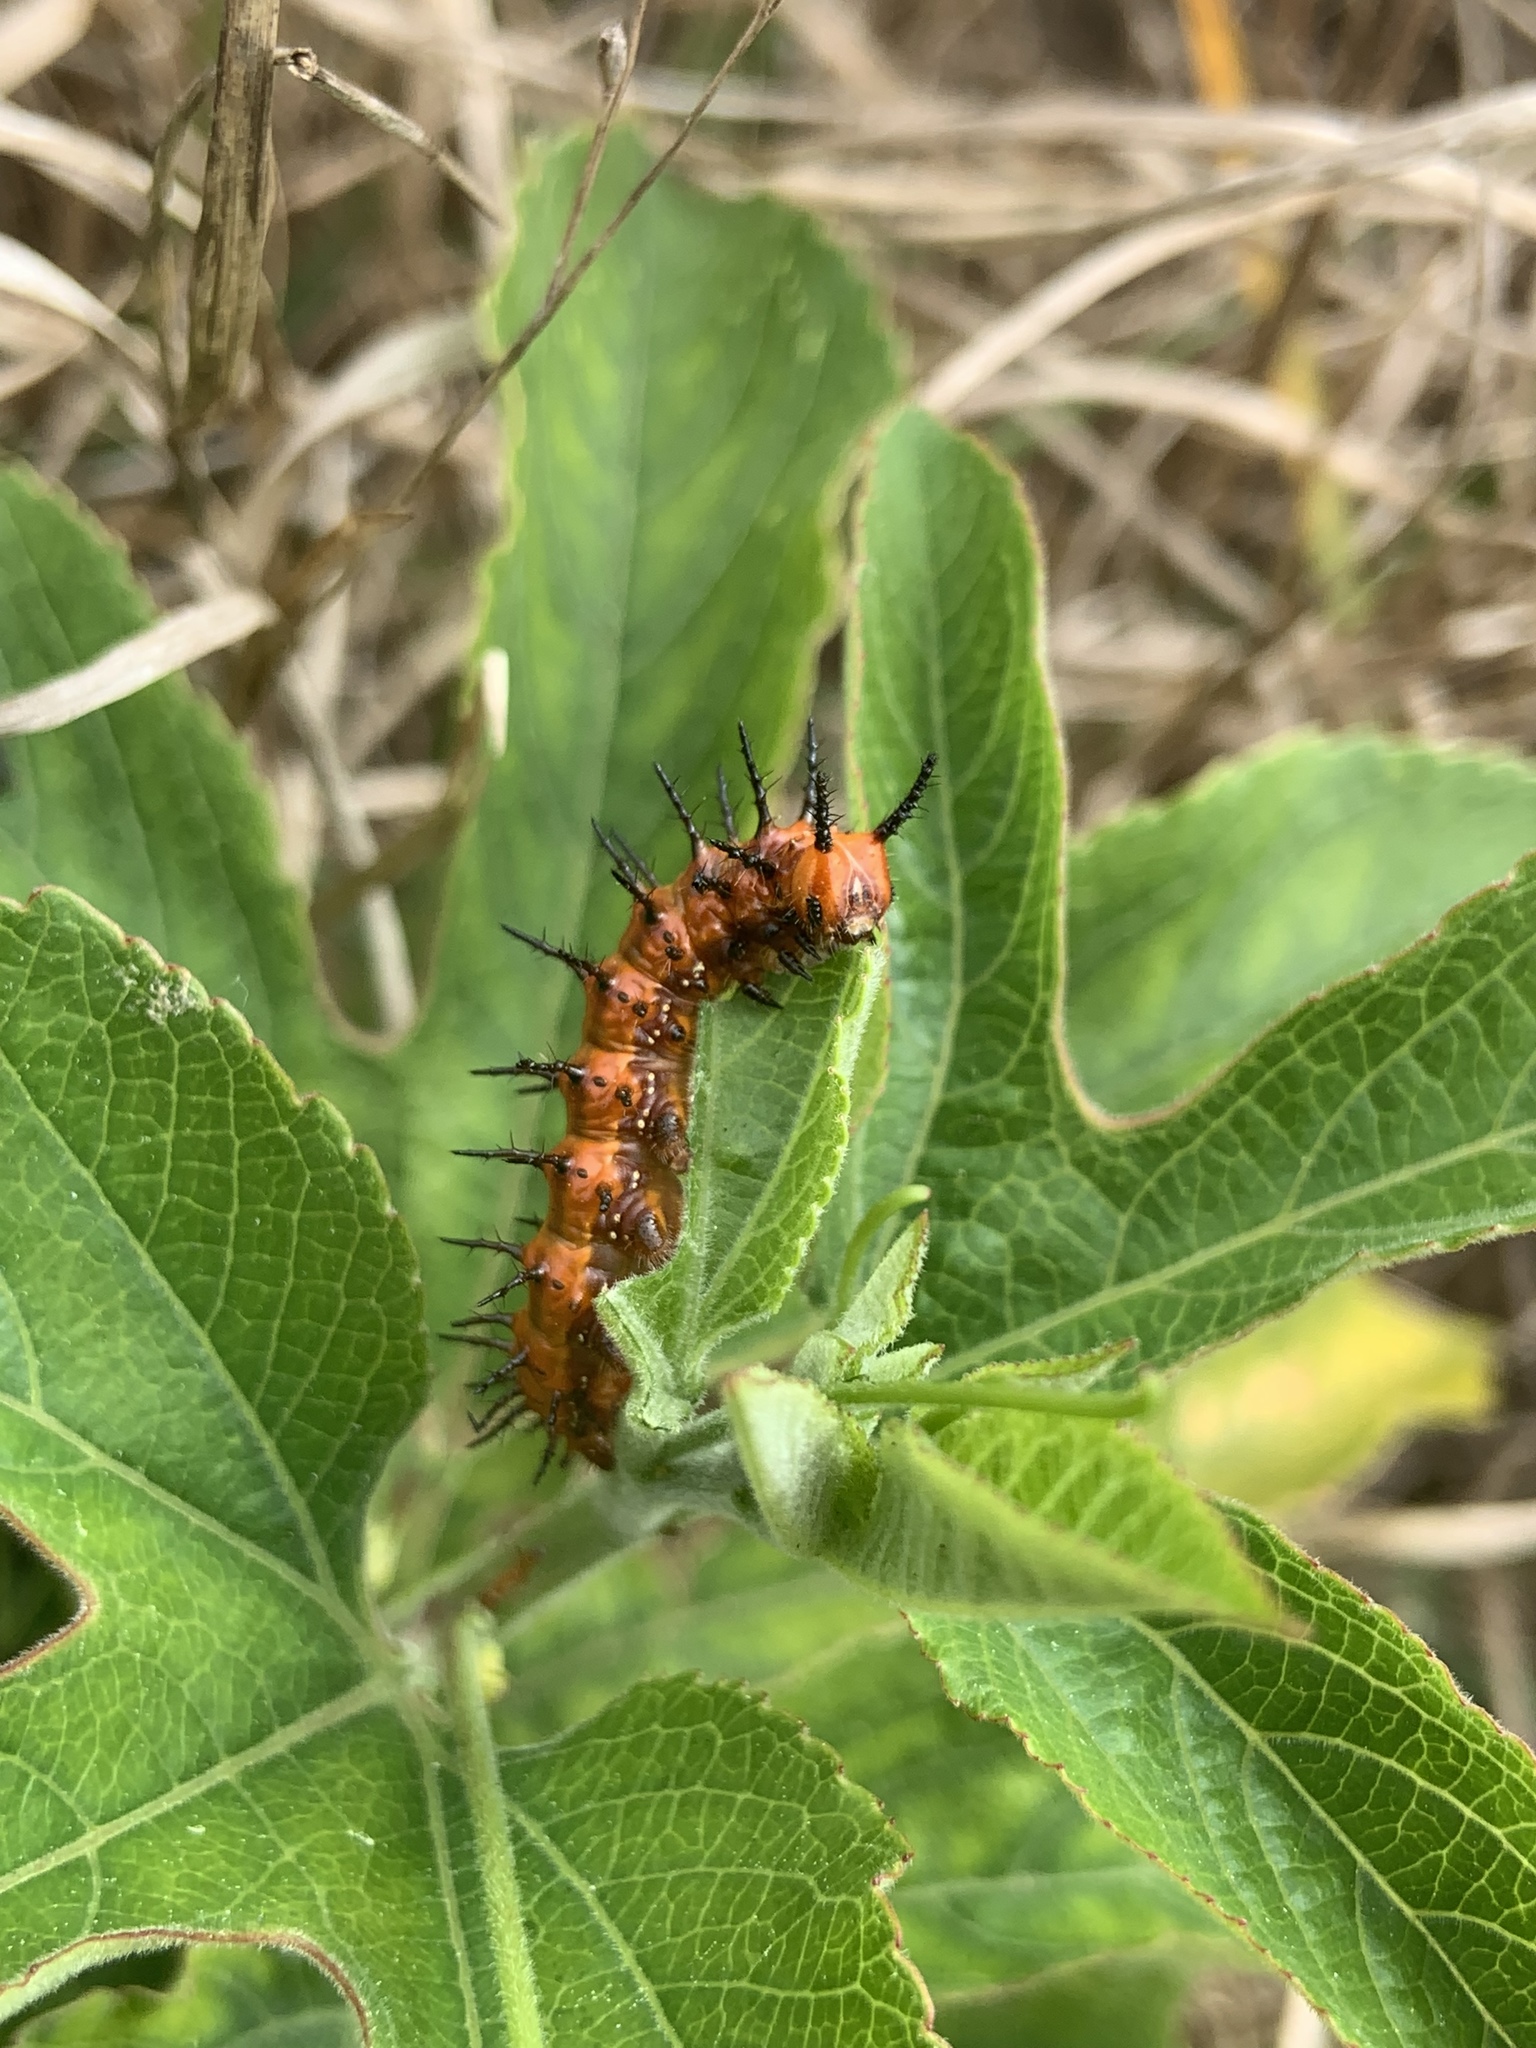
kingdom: Animalia
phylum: Arthropoda
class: Insecta
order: Lepidoptera
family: Nymphalidae
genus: Dione
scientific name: Dione vanillae
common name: Gulf fritillary
